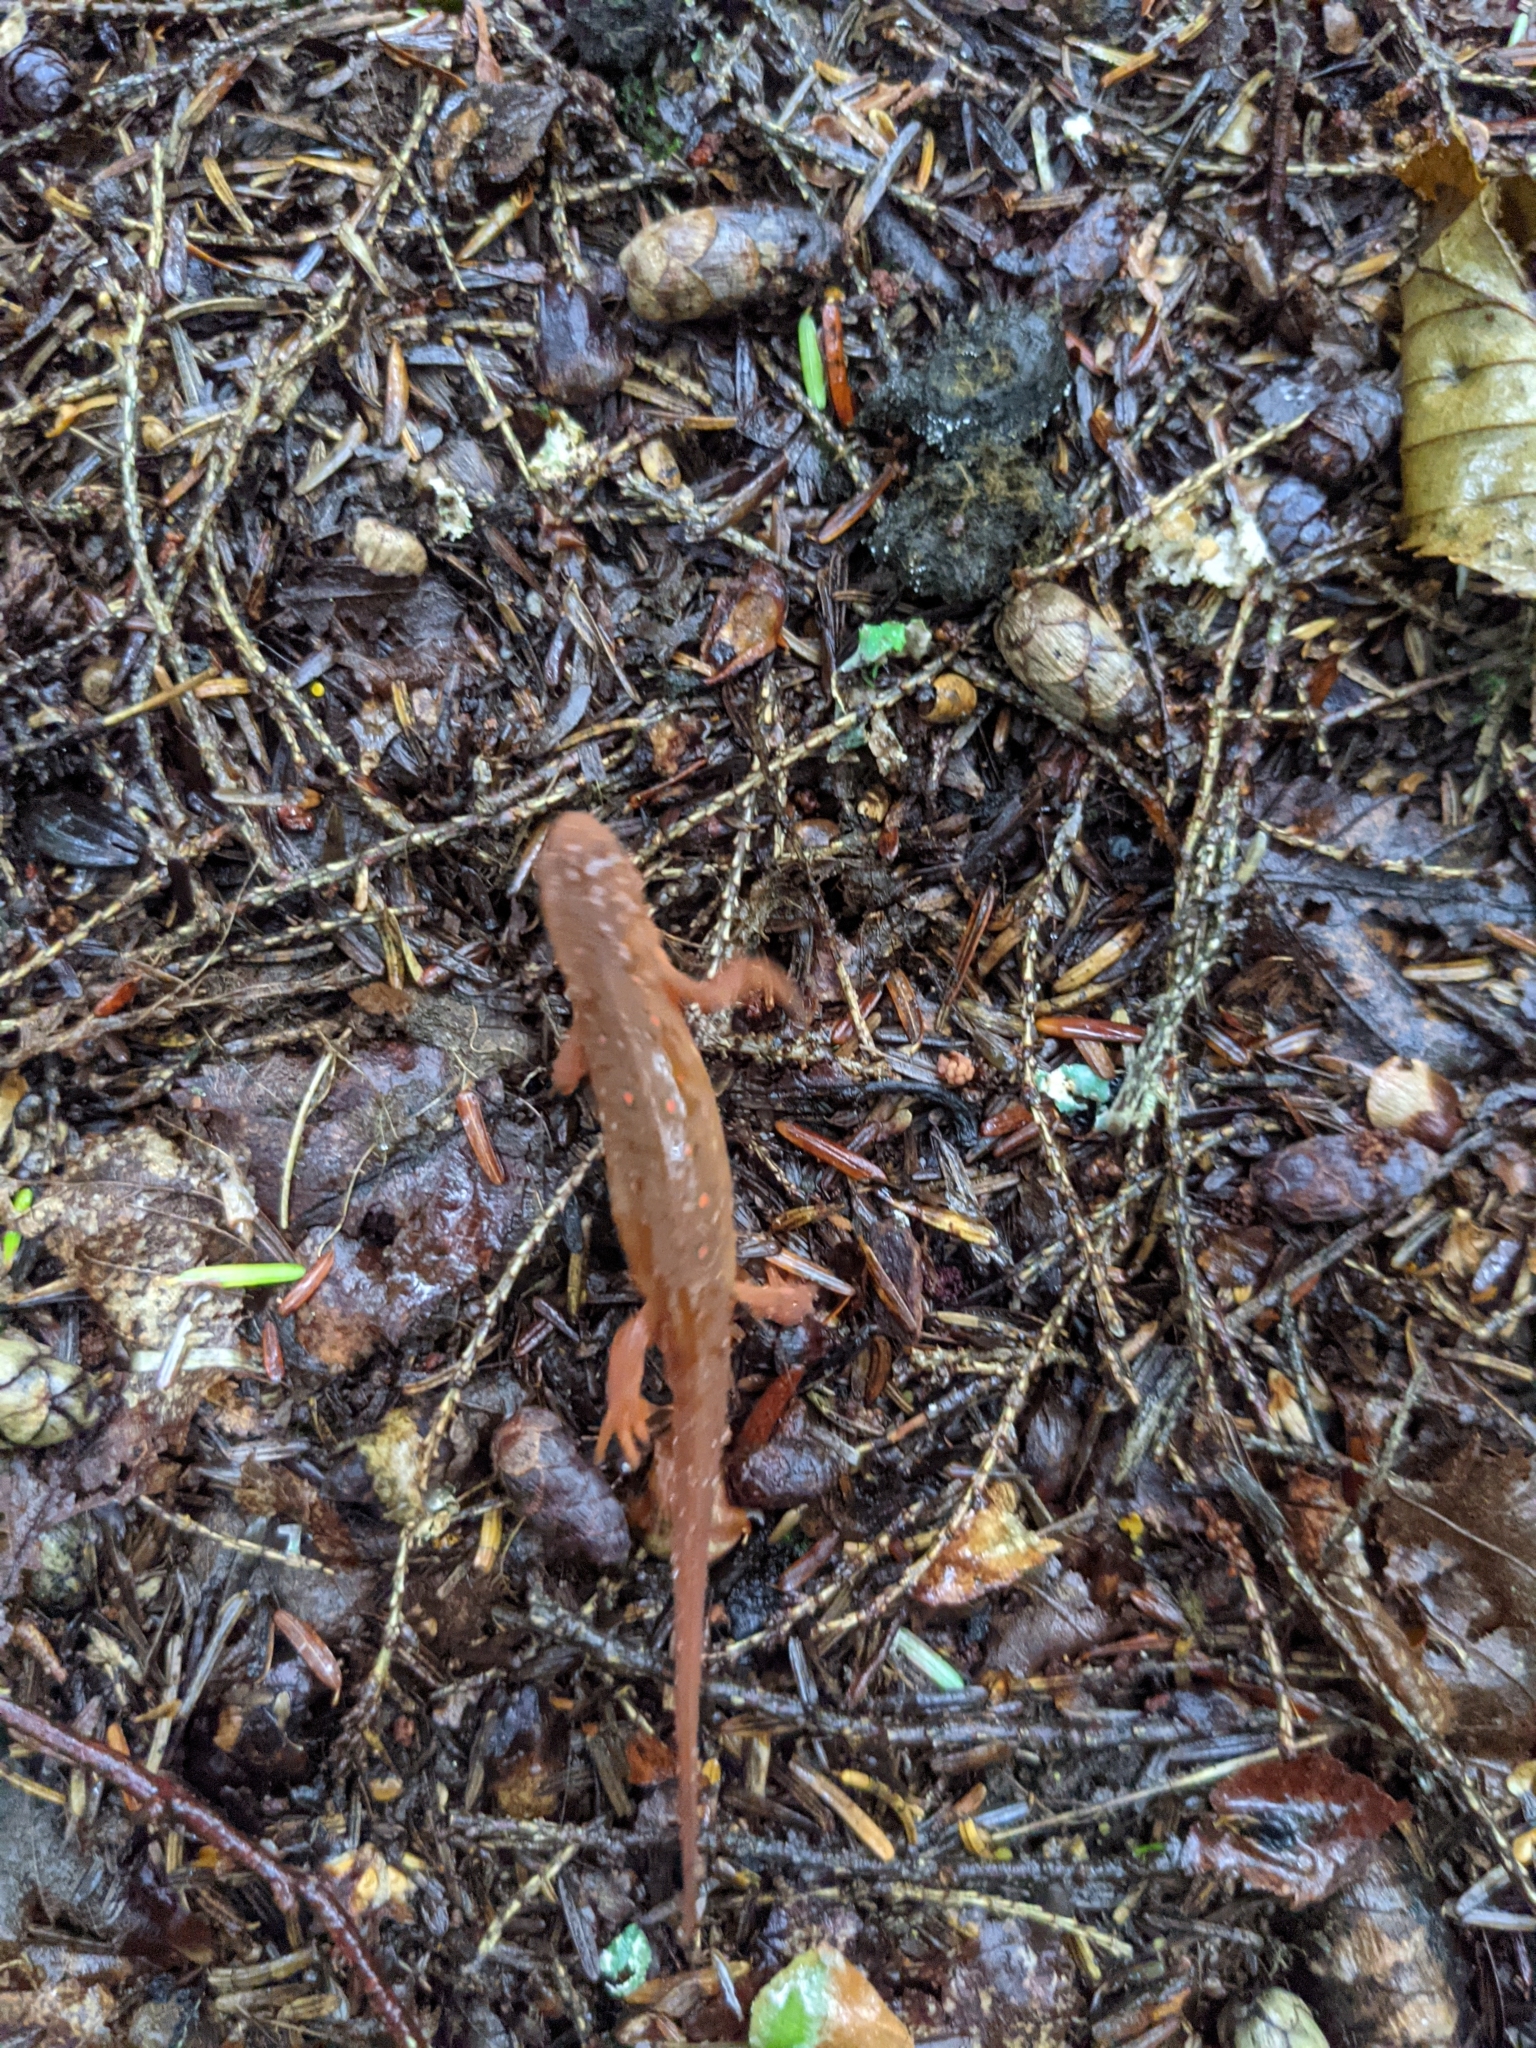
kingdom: Animalia
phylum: Chordata
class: Amphibia
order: Caudata
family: Salamandridae
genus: Notophthalmus
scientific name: Notophthalmus viridescens
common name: Eastern newt
